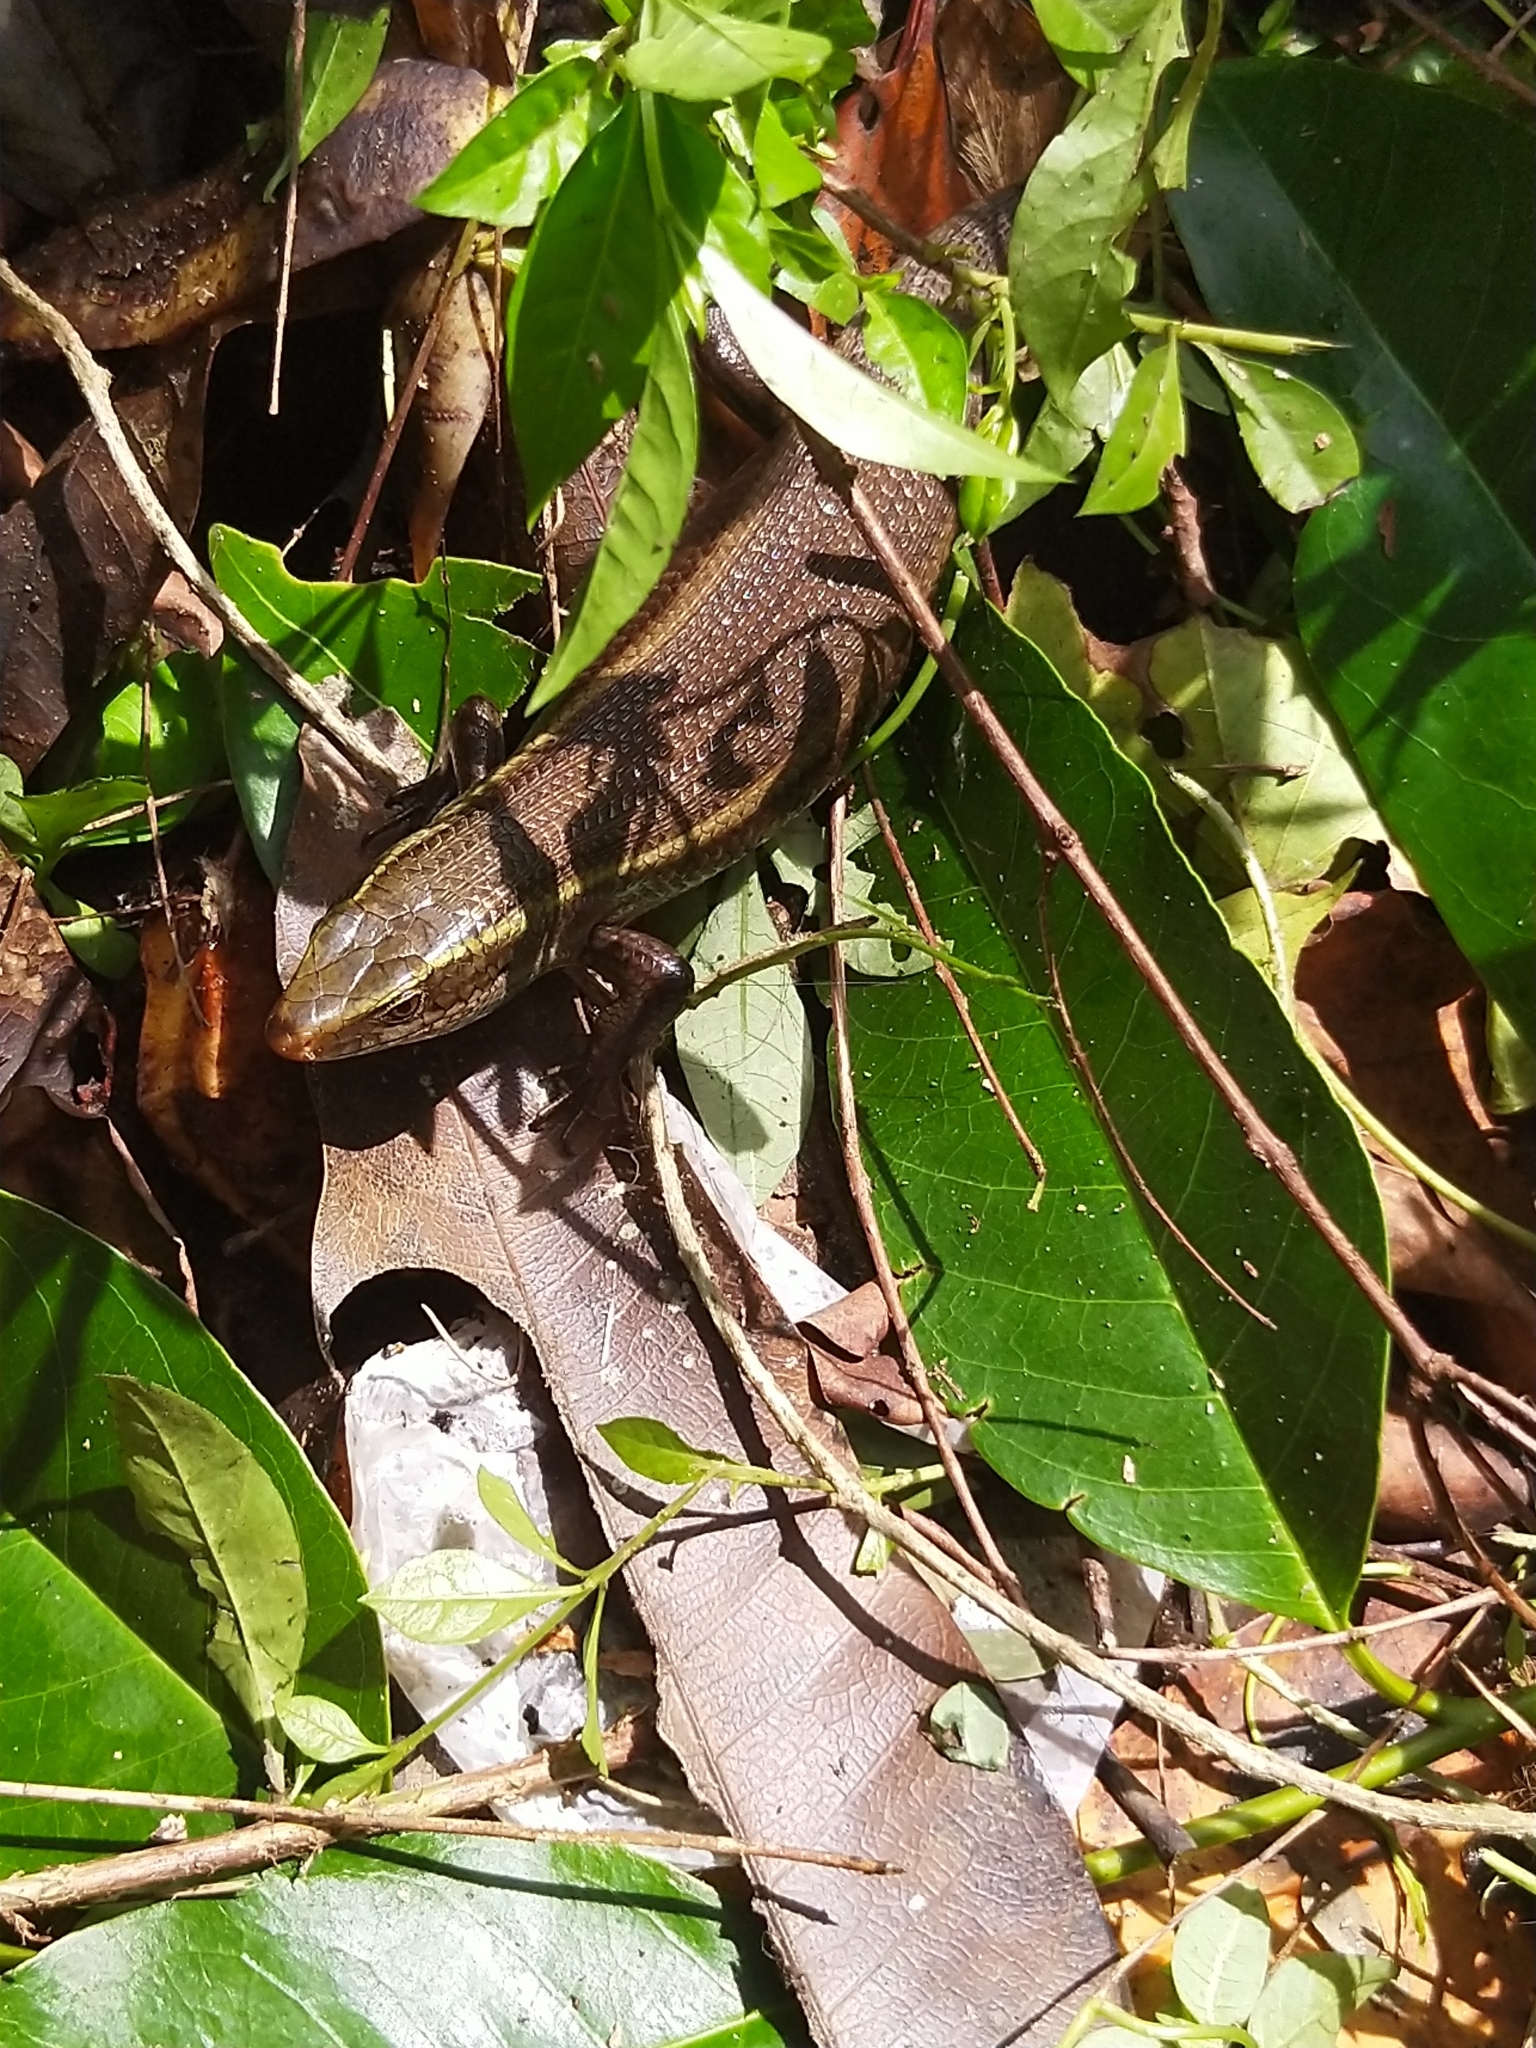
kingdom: Animalia
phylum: Chordata
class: Squamata
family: Scincidae
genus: Eutropis
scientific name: Eutropis carinata
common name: Keeled indian mabuya
